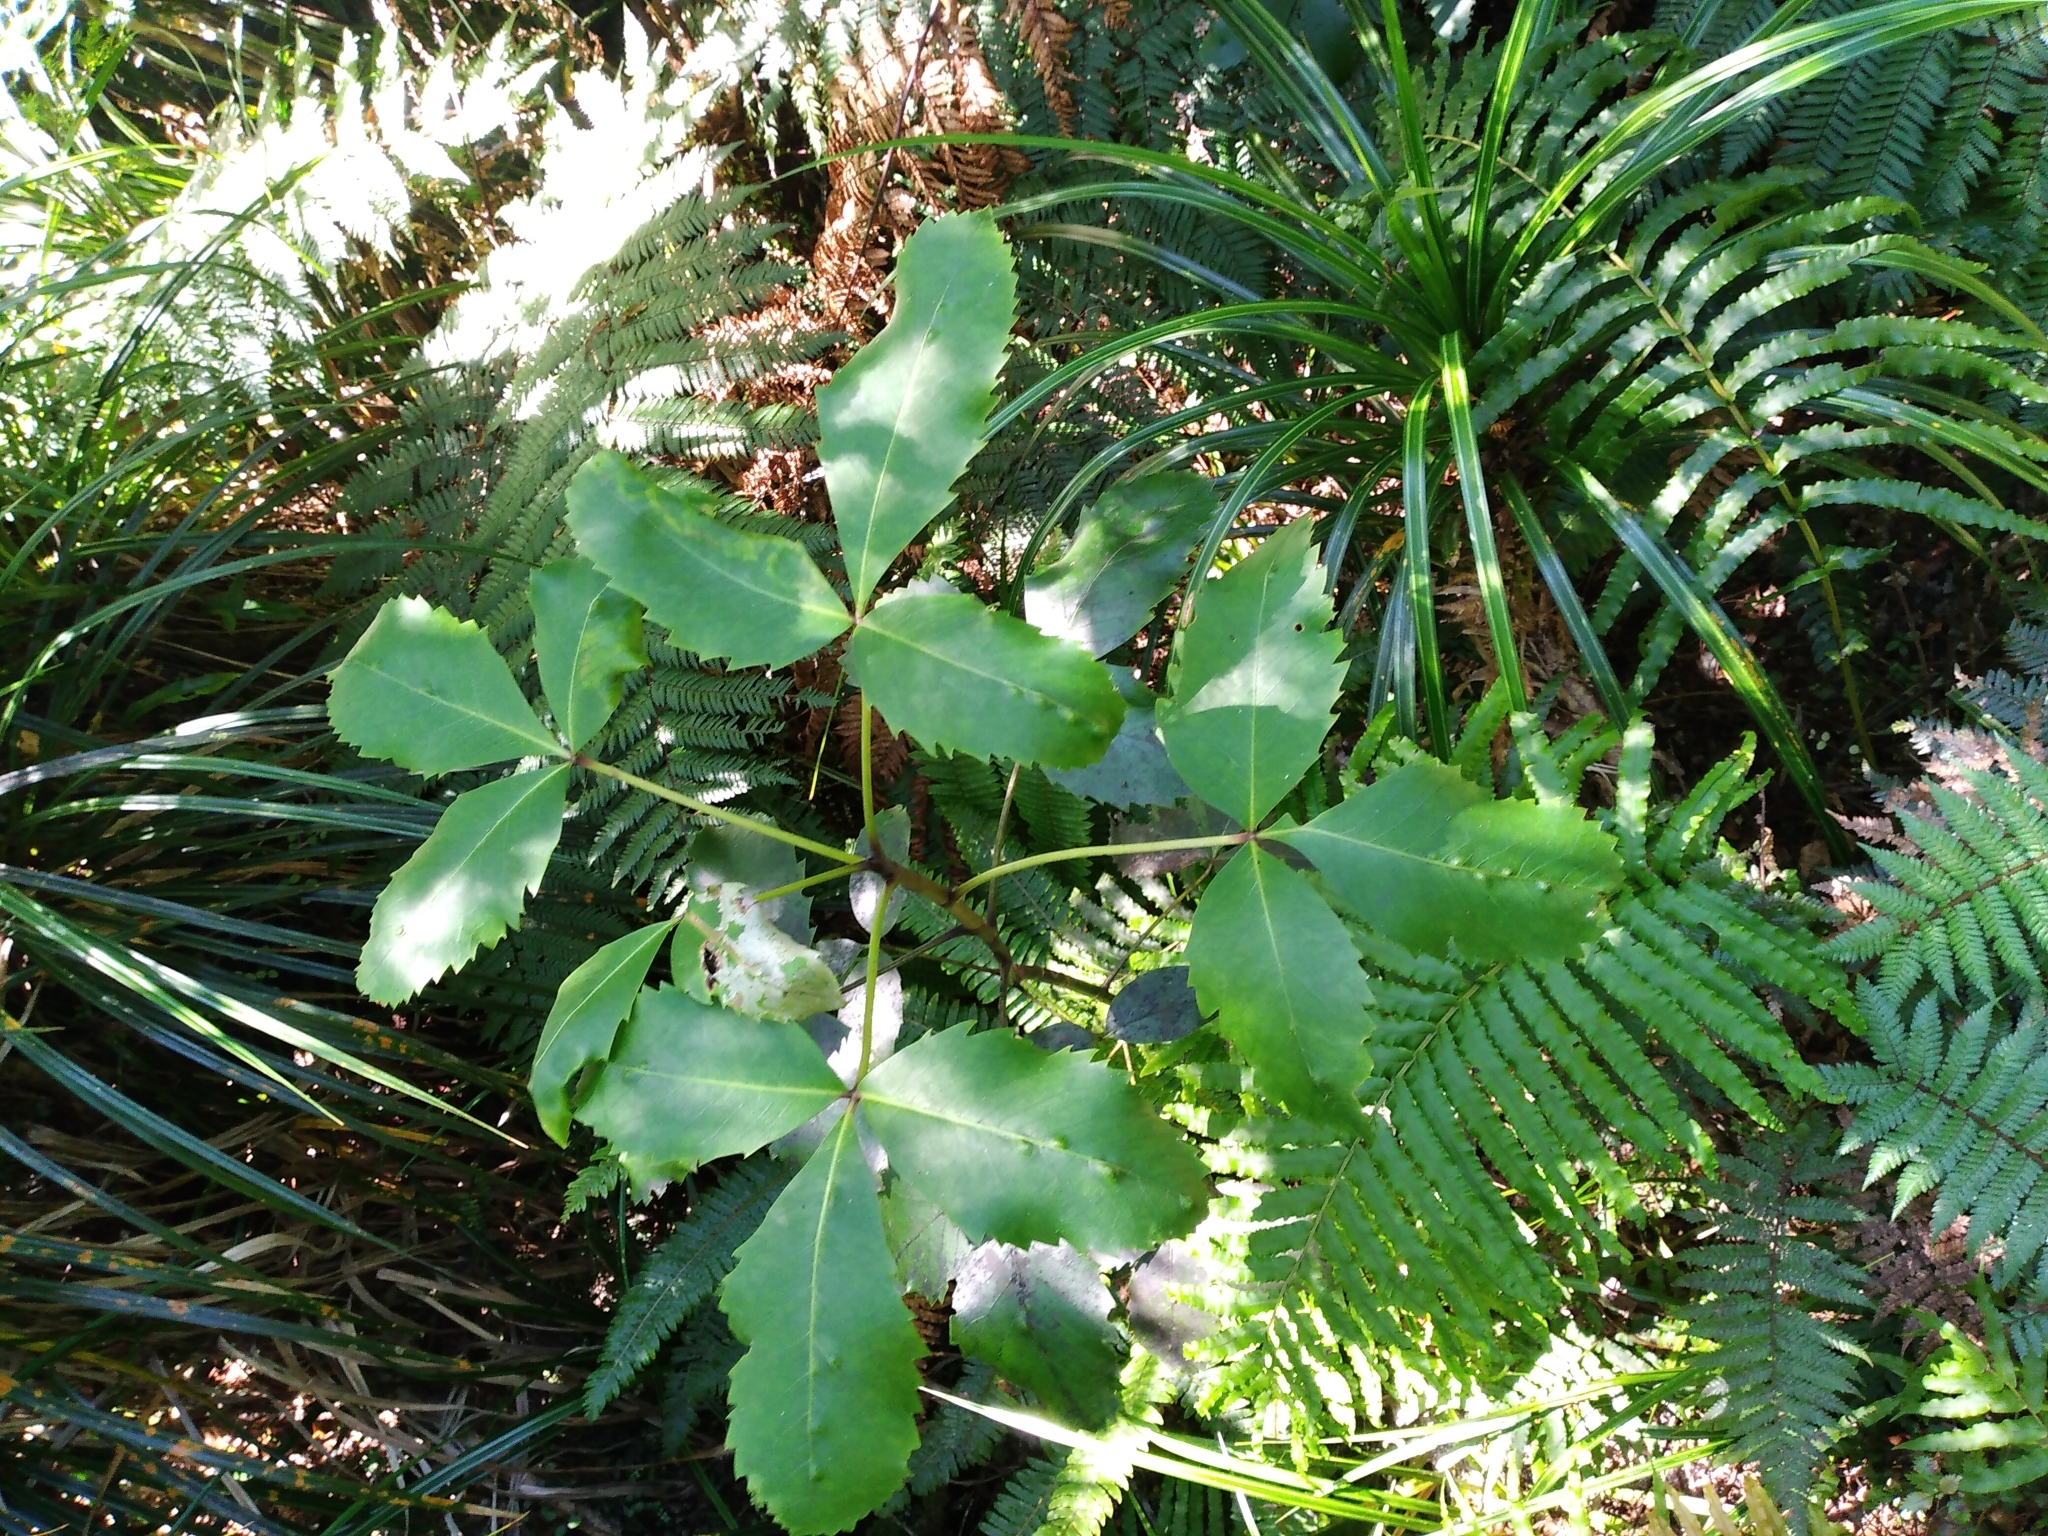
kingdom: Plantae
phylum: Tracheophyta
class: Magnoliopsida
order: Apiales
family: Araliaceae
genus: Neopanax
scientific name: Neopanax colensoi
